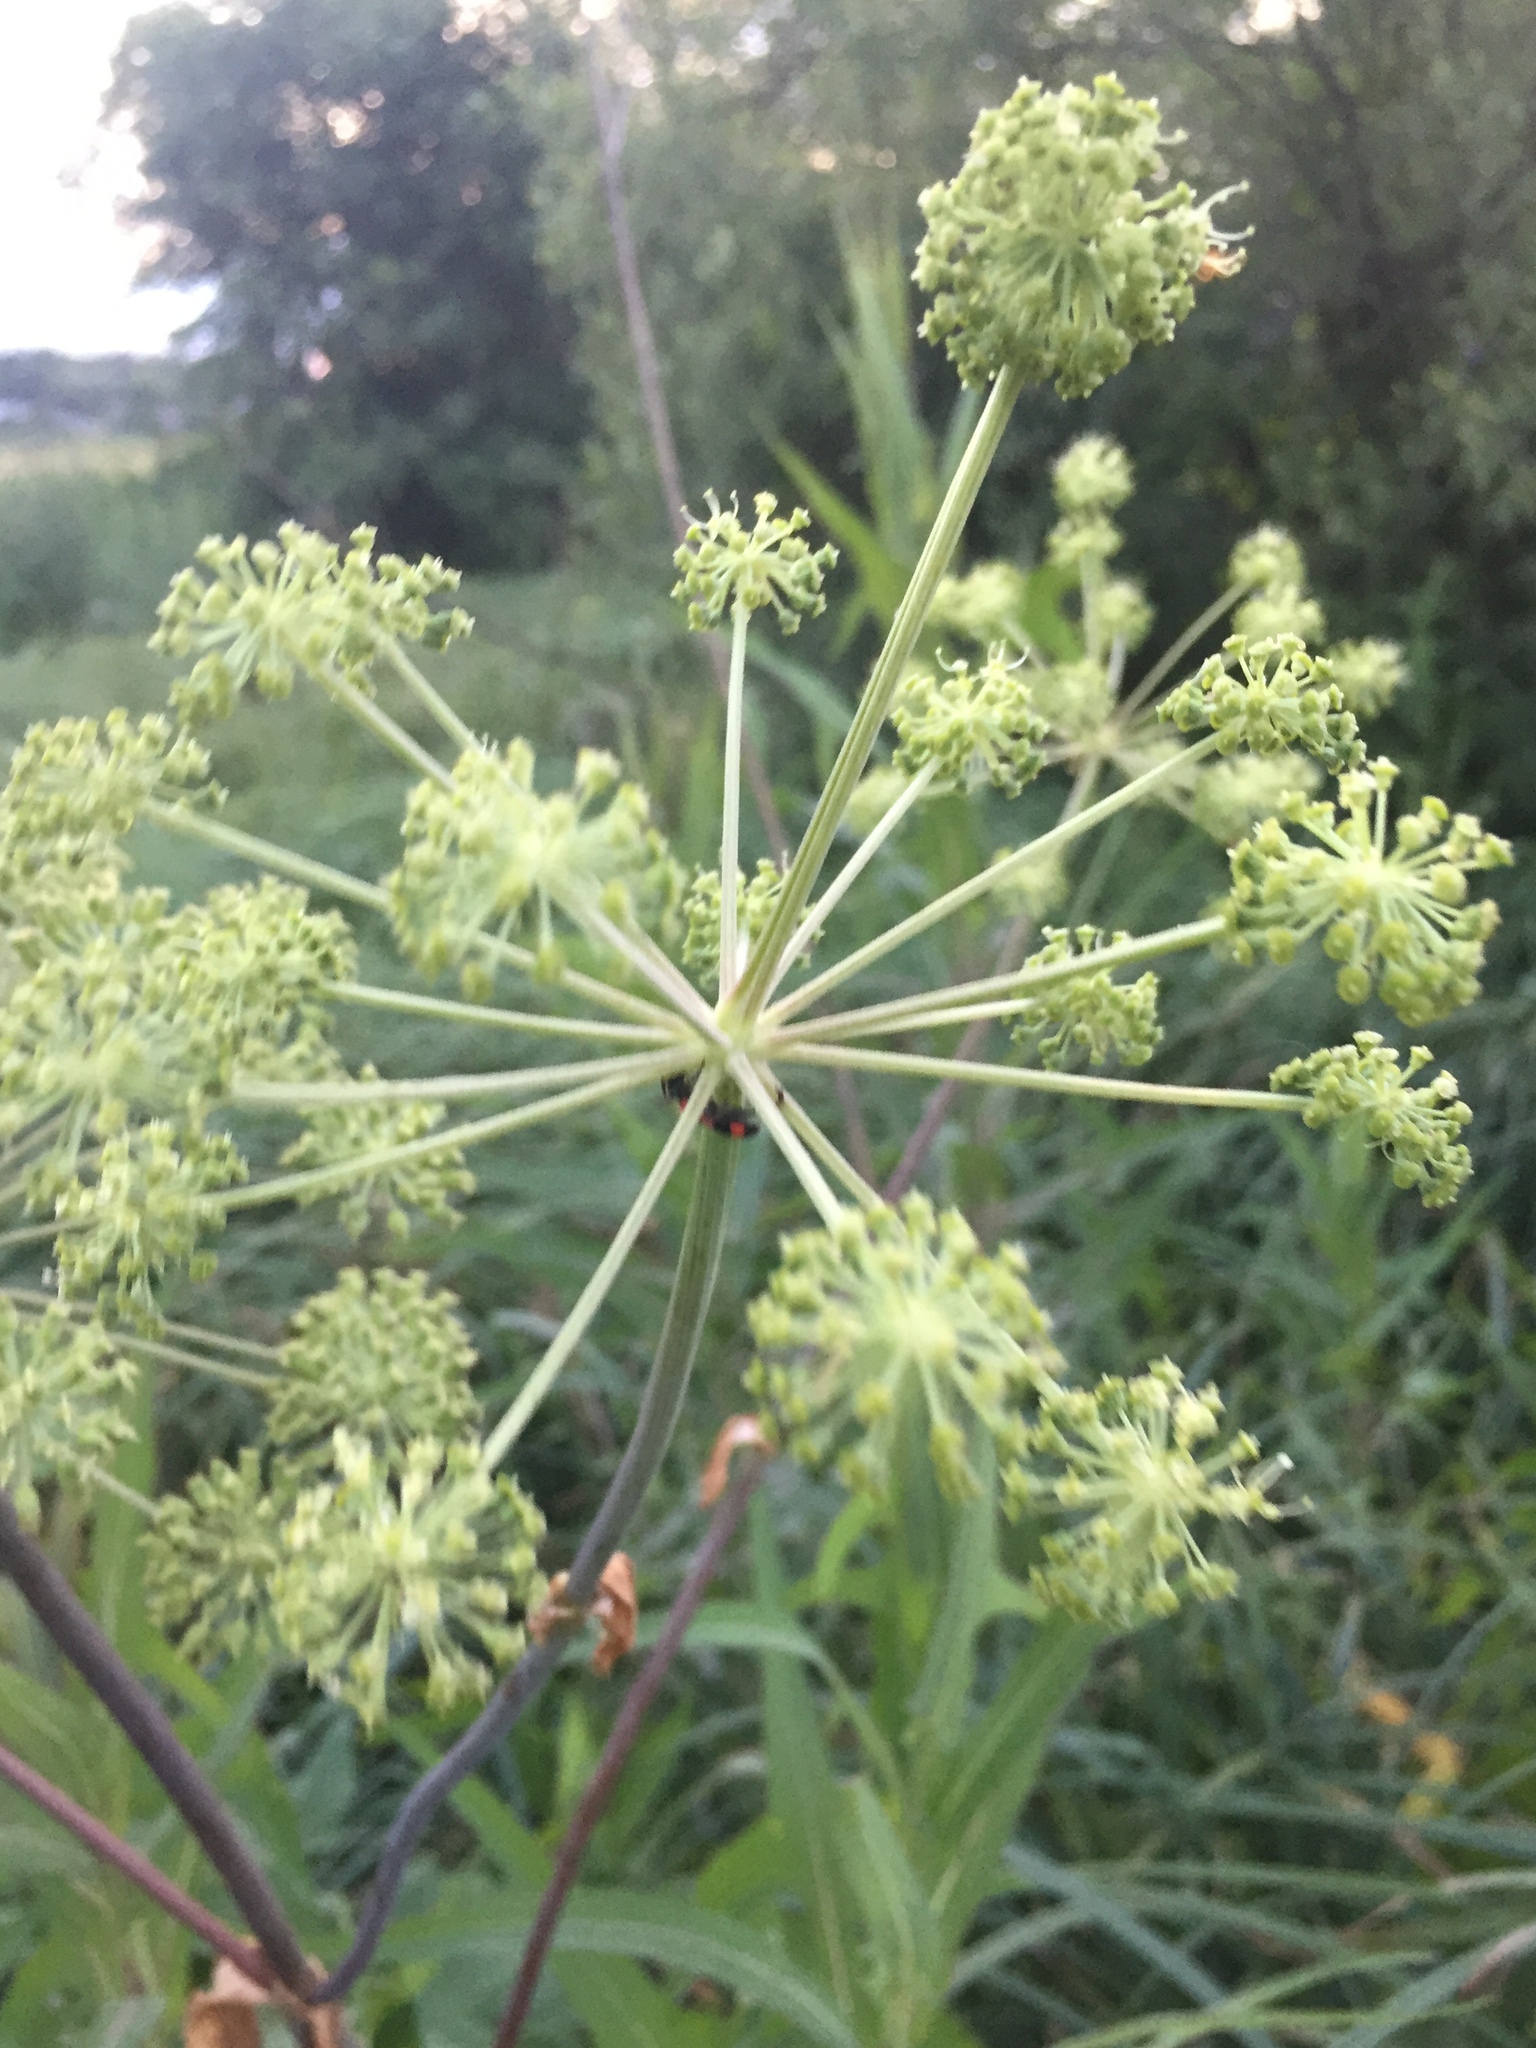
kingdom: Plantae
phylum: Tracheophyta
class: Magnoliopsida
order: Apiales
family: Apiaceae
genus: Angelica
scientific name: Angelica archangelica
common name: Garden angelica
